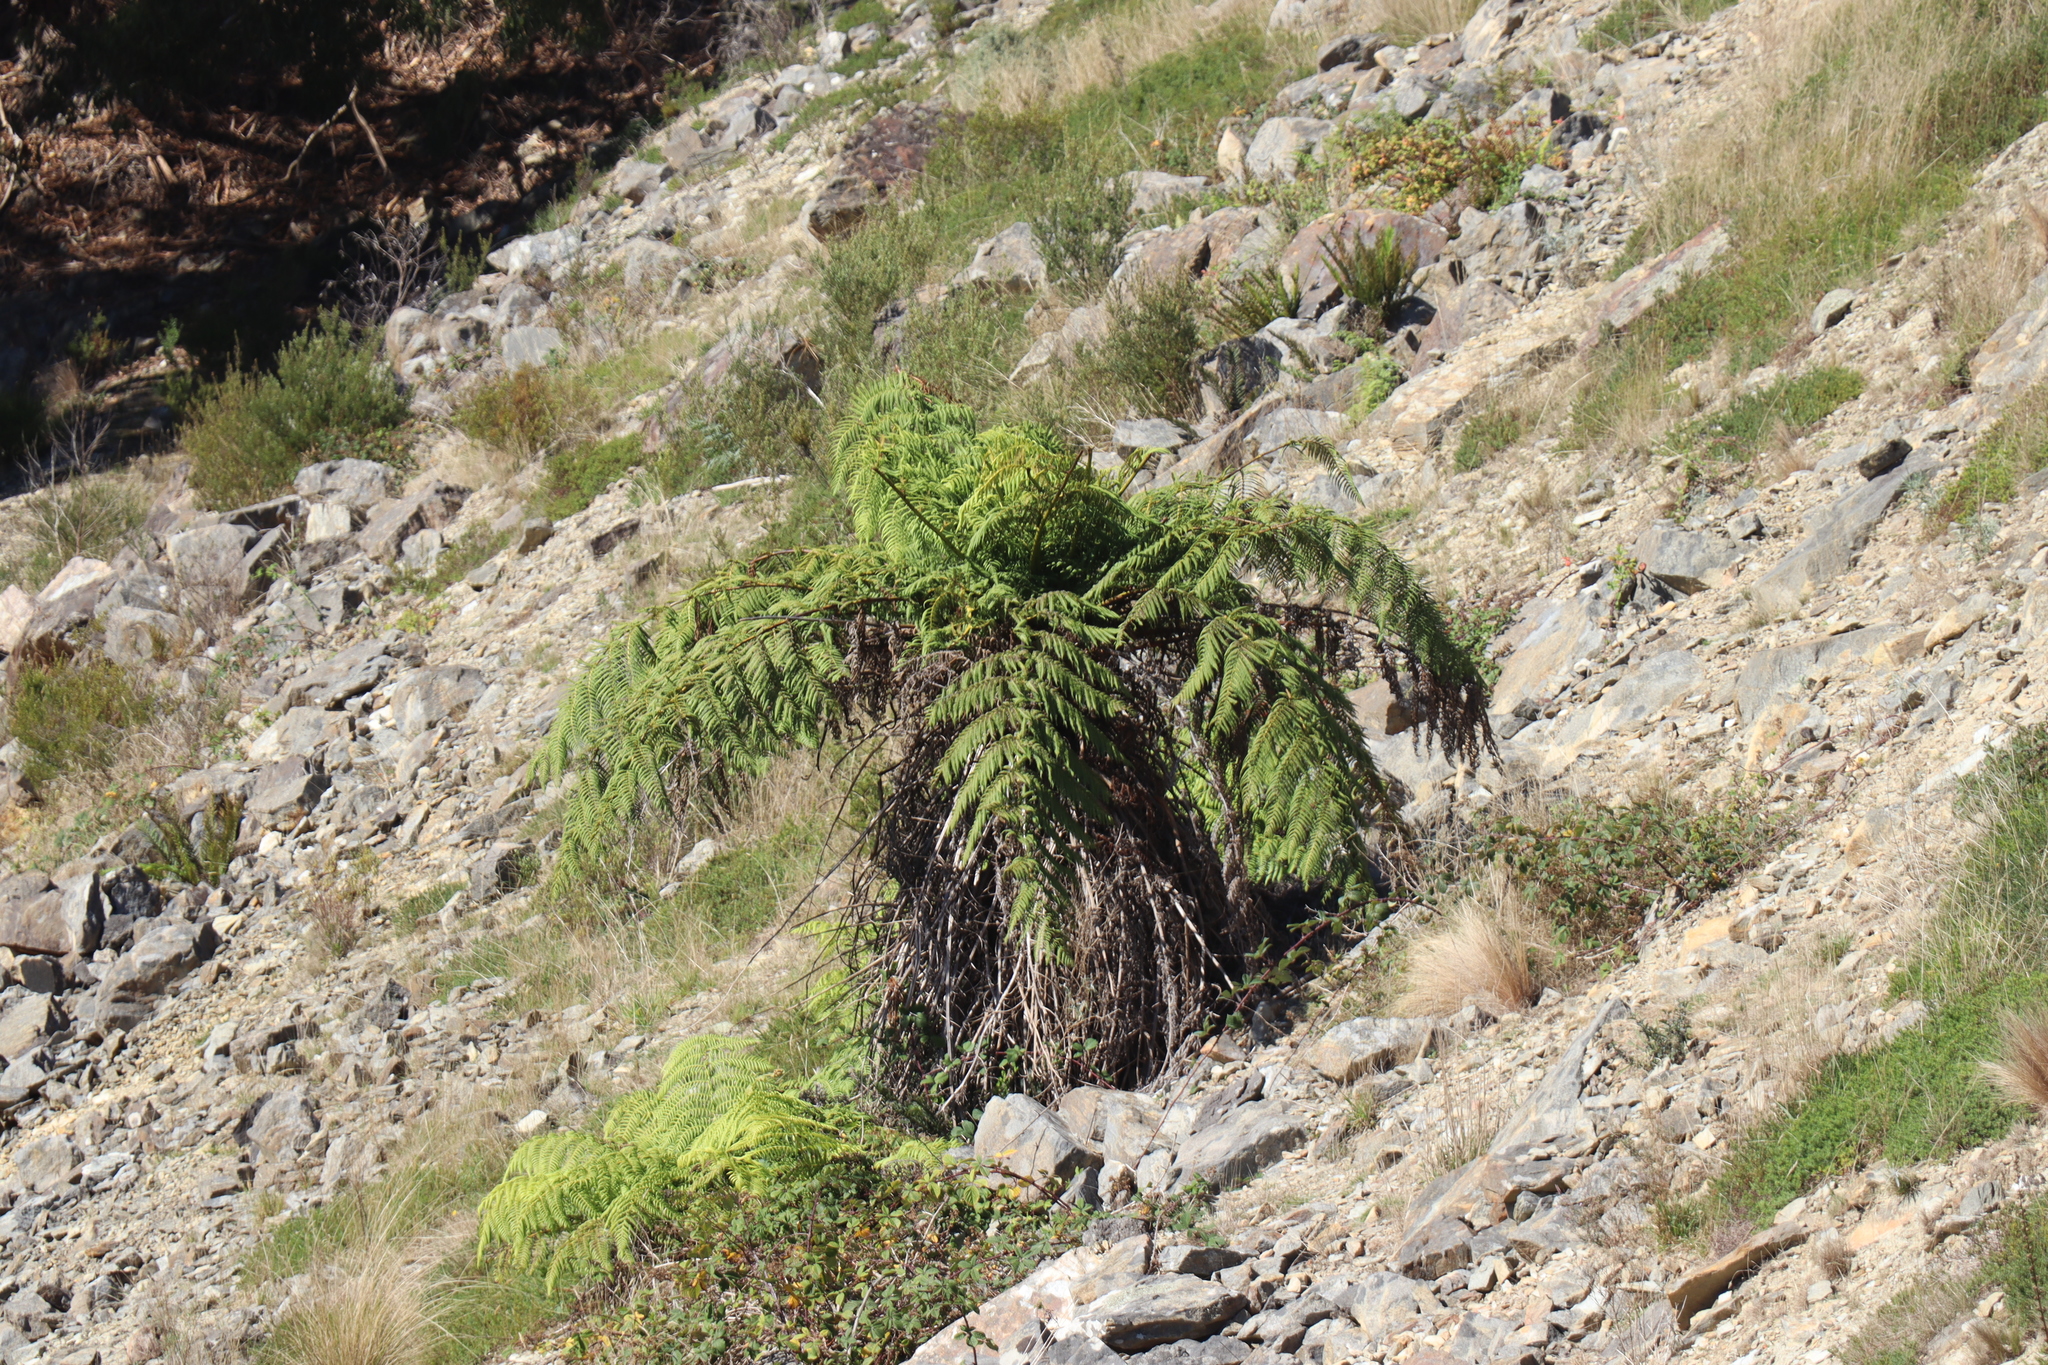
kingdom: Plantae
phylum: Tracheophyta
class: Polypodiopsida
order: Cyatheales
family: Cyatheaceae
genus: Alsophila
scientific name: Alsophila australis
